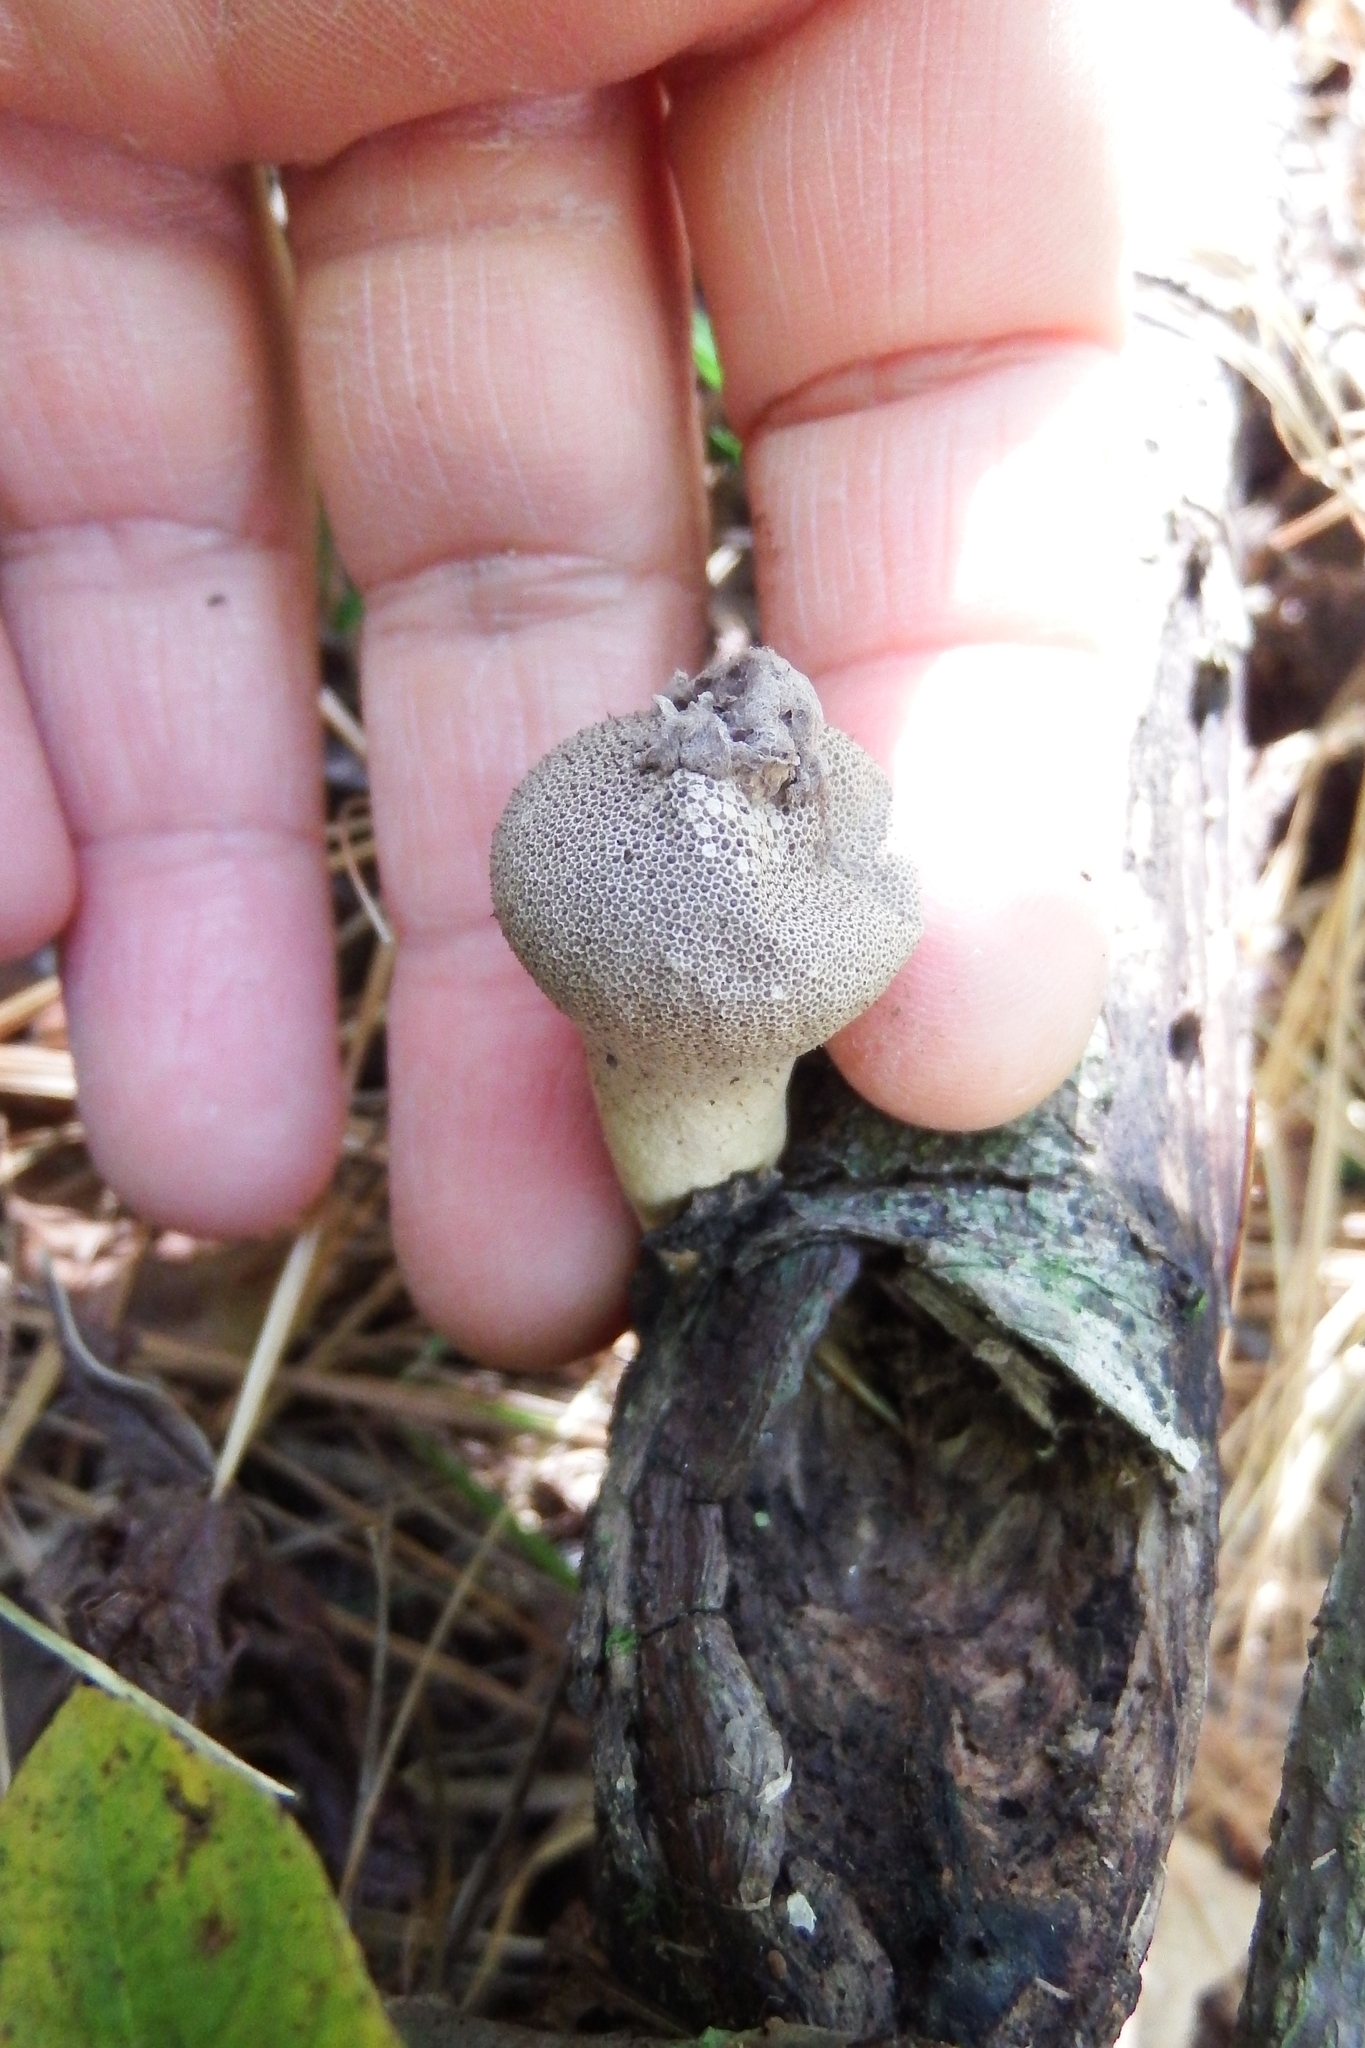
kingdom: Fungi
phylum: Basidiomycota
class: Agaricomycetes
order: Agaricales
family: Lycoperdaceae
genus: Apioperdon
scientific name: Apioperdon pyriforme
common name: Pear-shaped puffball
